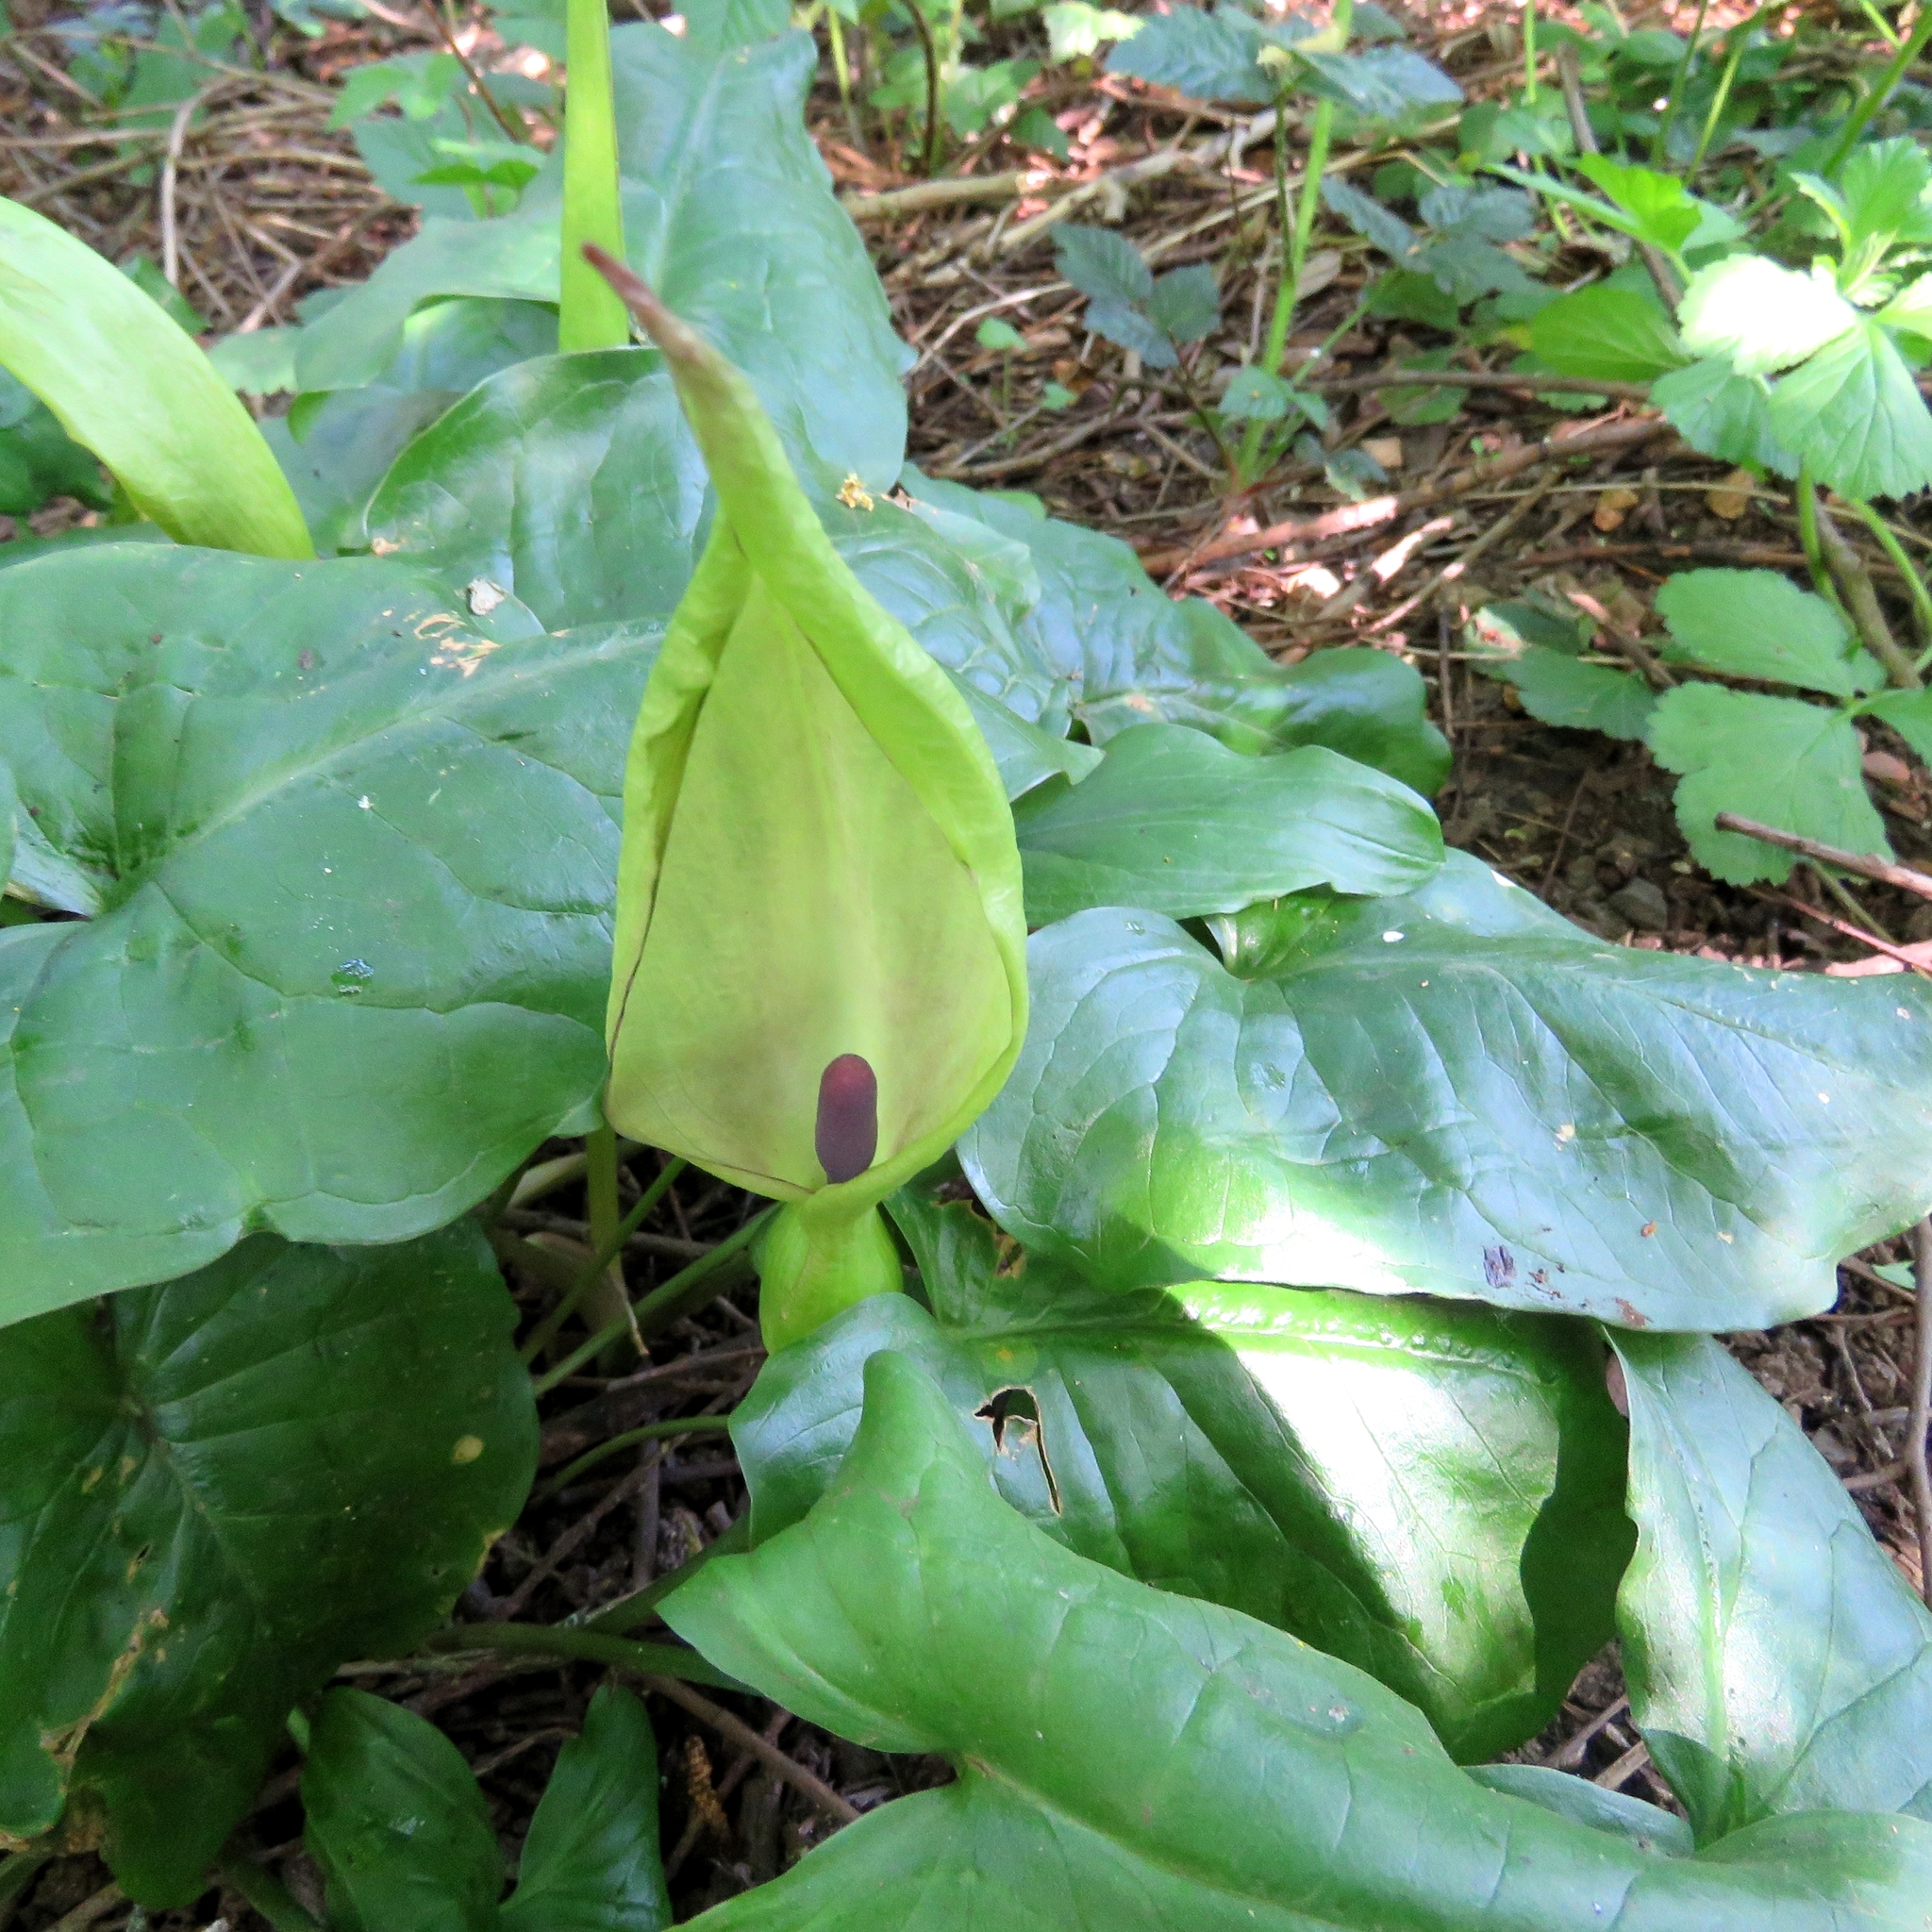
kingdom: Plantae
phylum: Tracheophyta
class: Liliopsida
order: Alismatales
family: Araceae
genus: Arum
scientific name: Arum maculatum
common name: Lords-and-ladies
